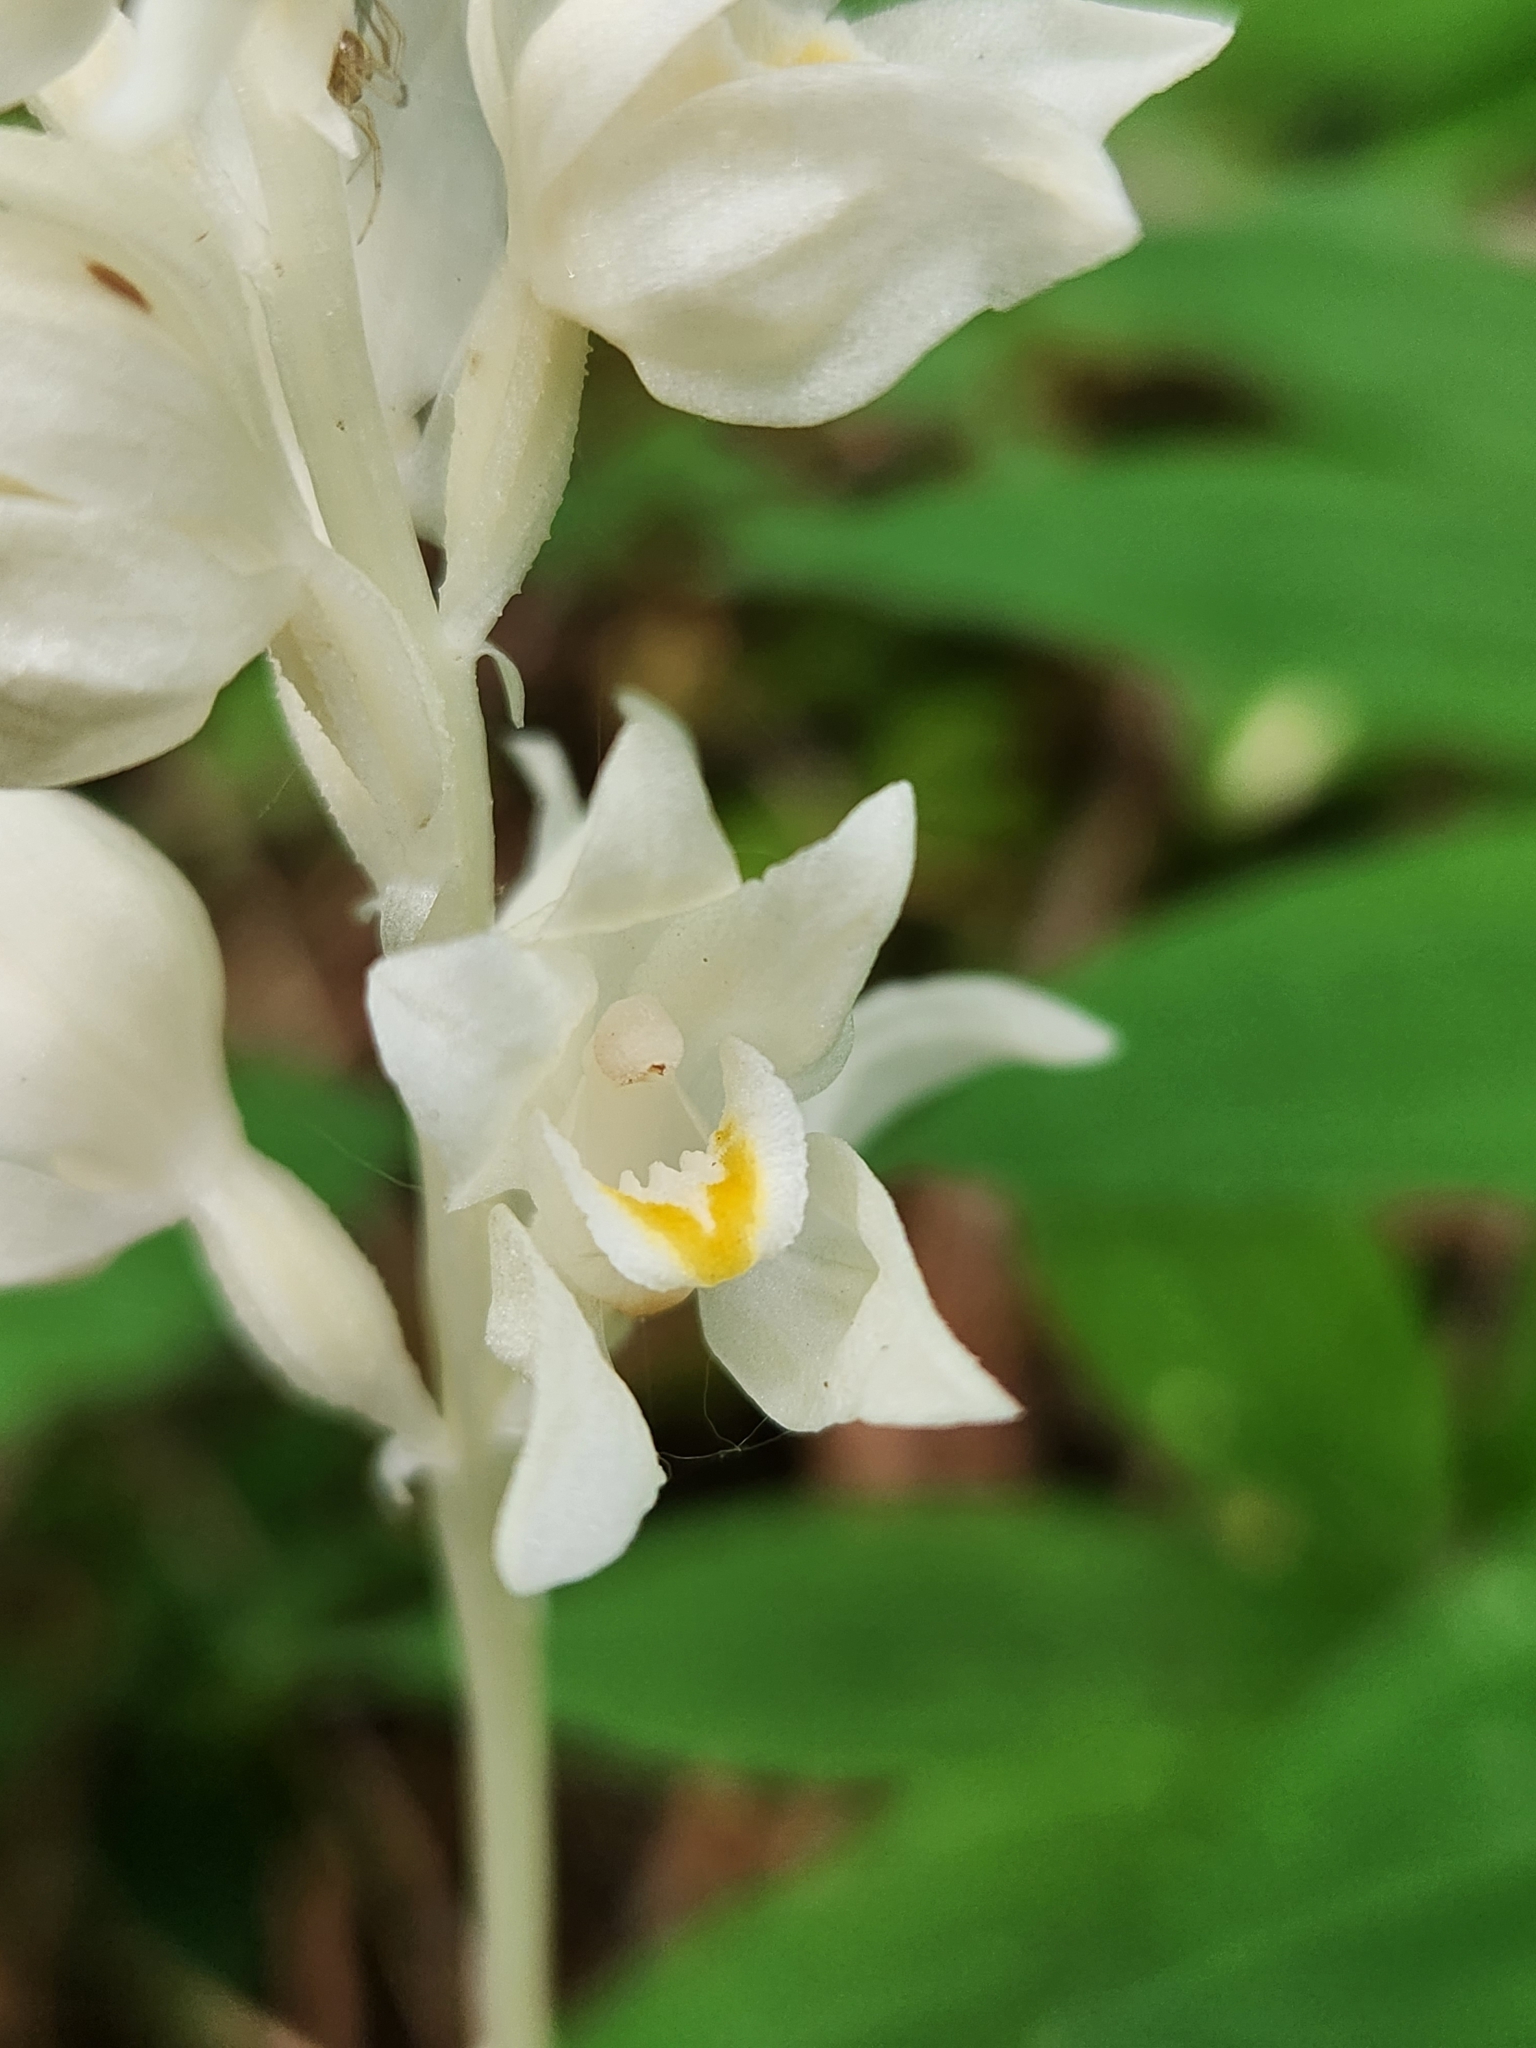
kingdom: Plantae
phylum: Tracheophyta
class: Liliopsida
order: Asparagales
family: Orchidaceae
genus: Cephalanthera
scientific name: Cephalanthera austiniae
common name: Phantom orchid
